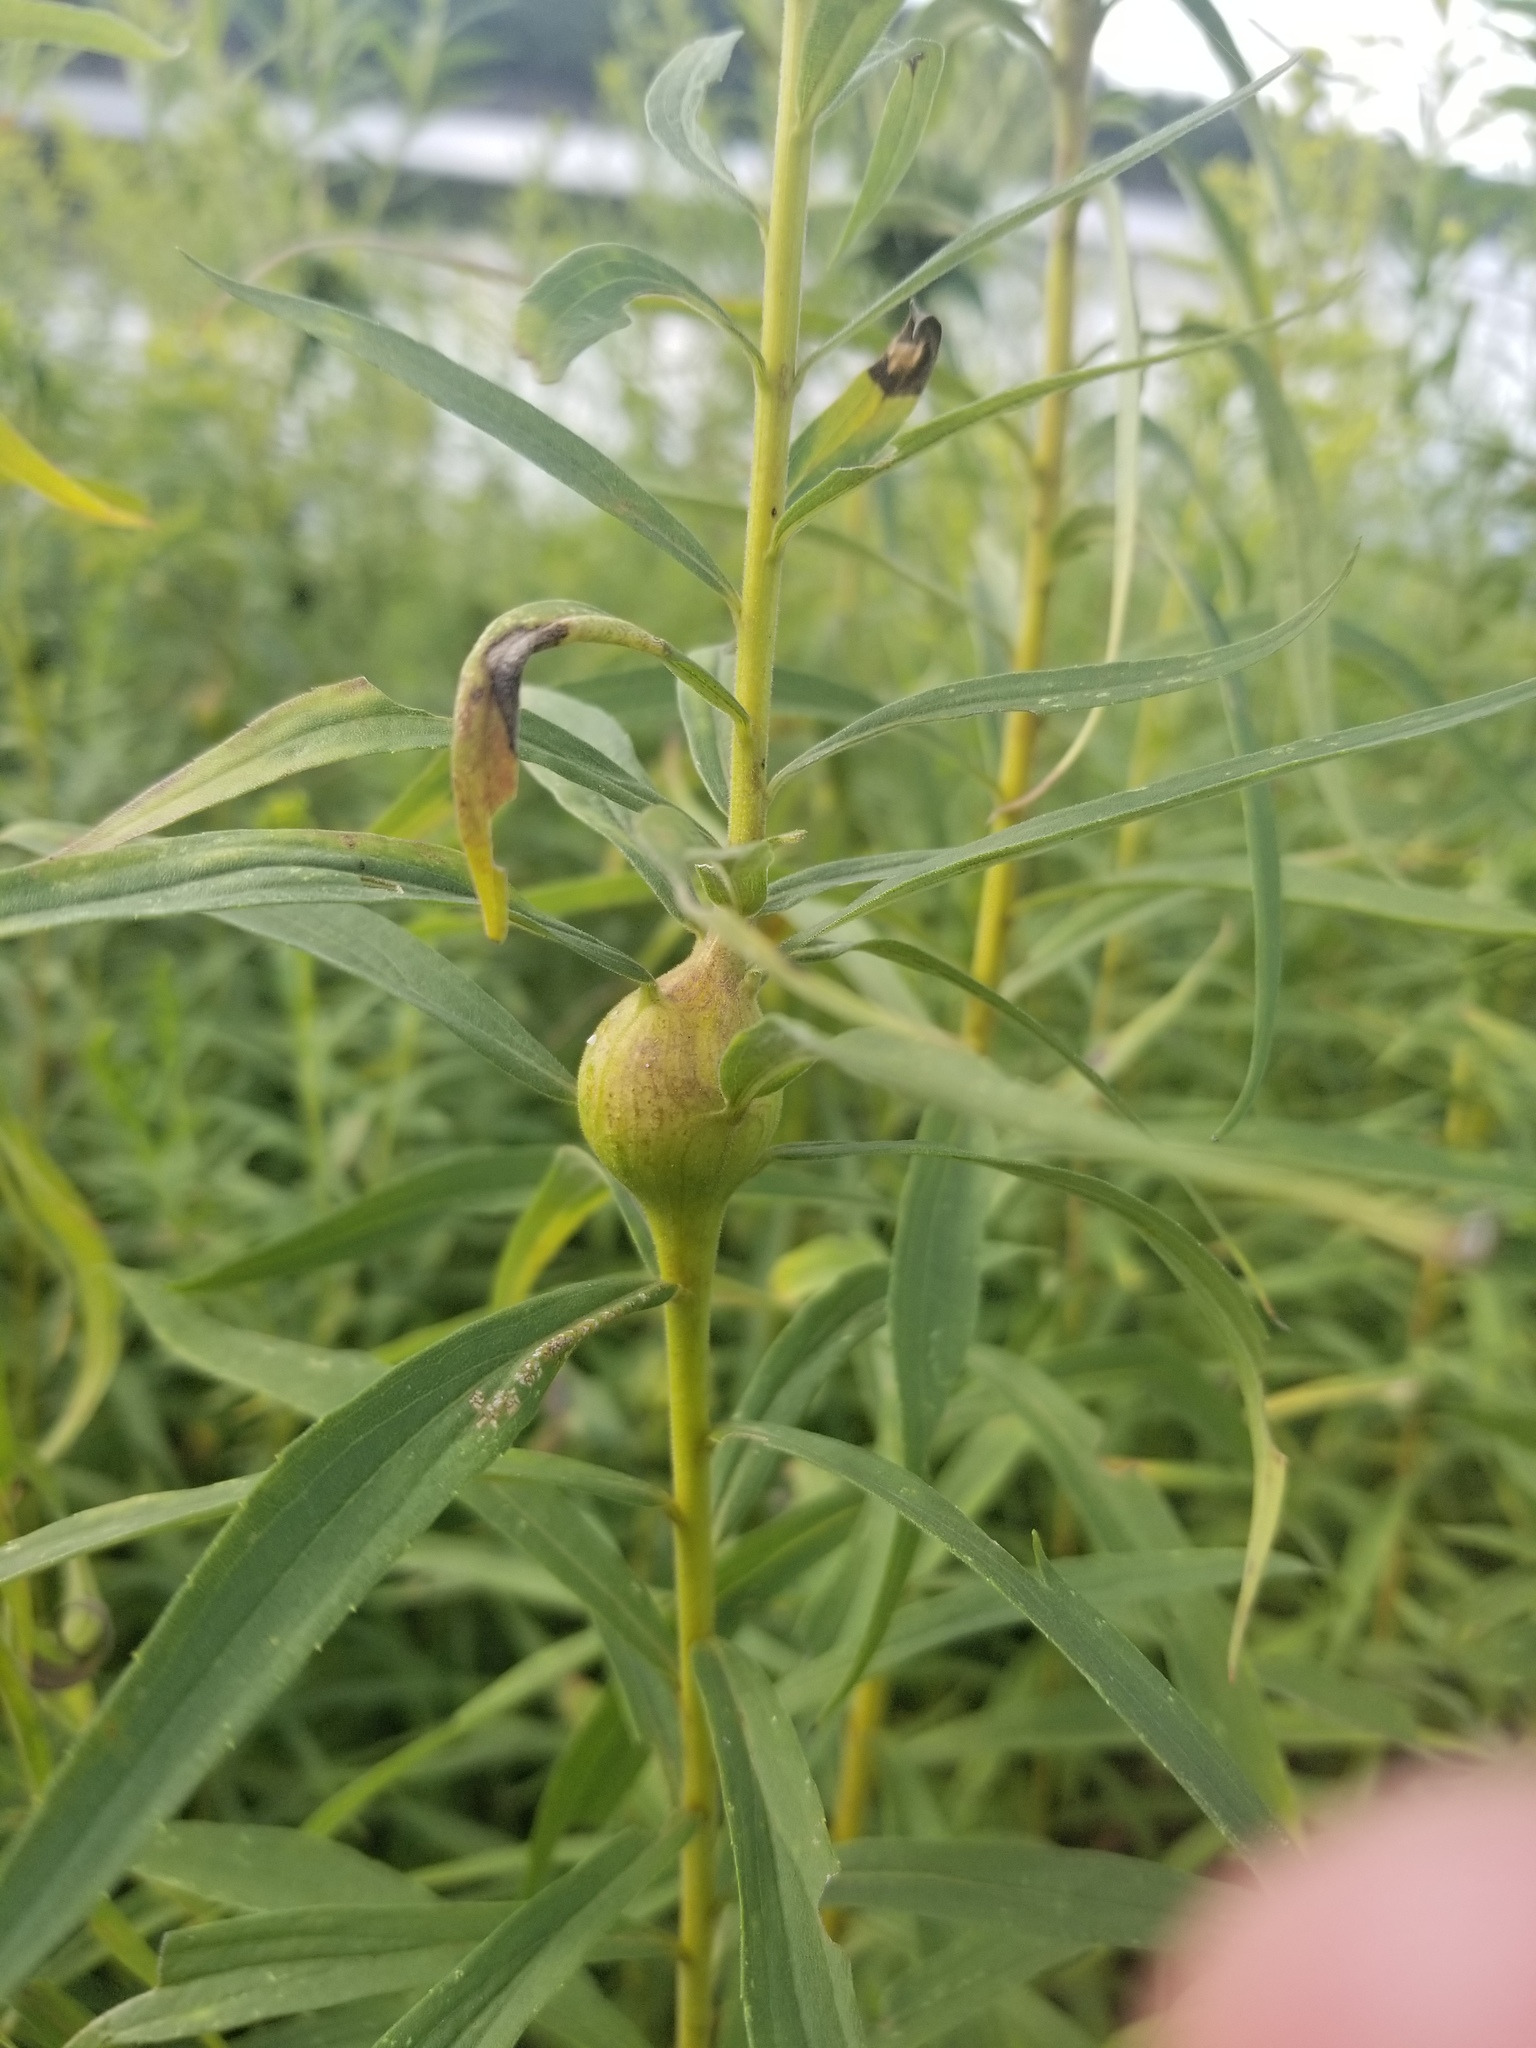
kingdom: Animalia
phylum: Arthropoda
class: Insecta
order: Diptera
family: Tephritidae
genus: Eurosta
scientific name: Eurosta solidaginis
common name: Goldenrod gall fly
